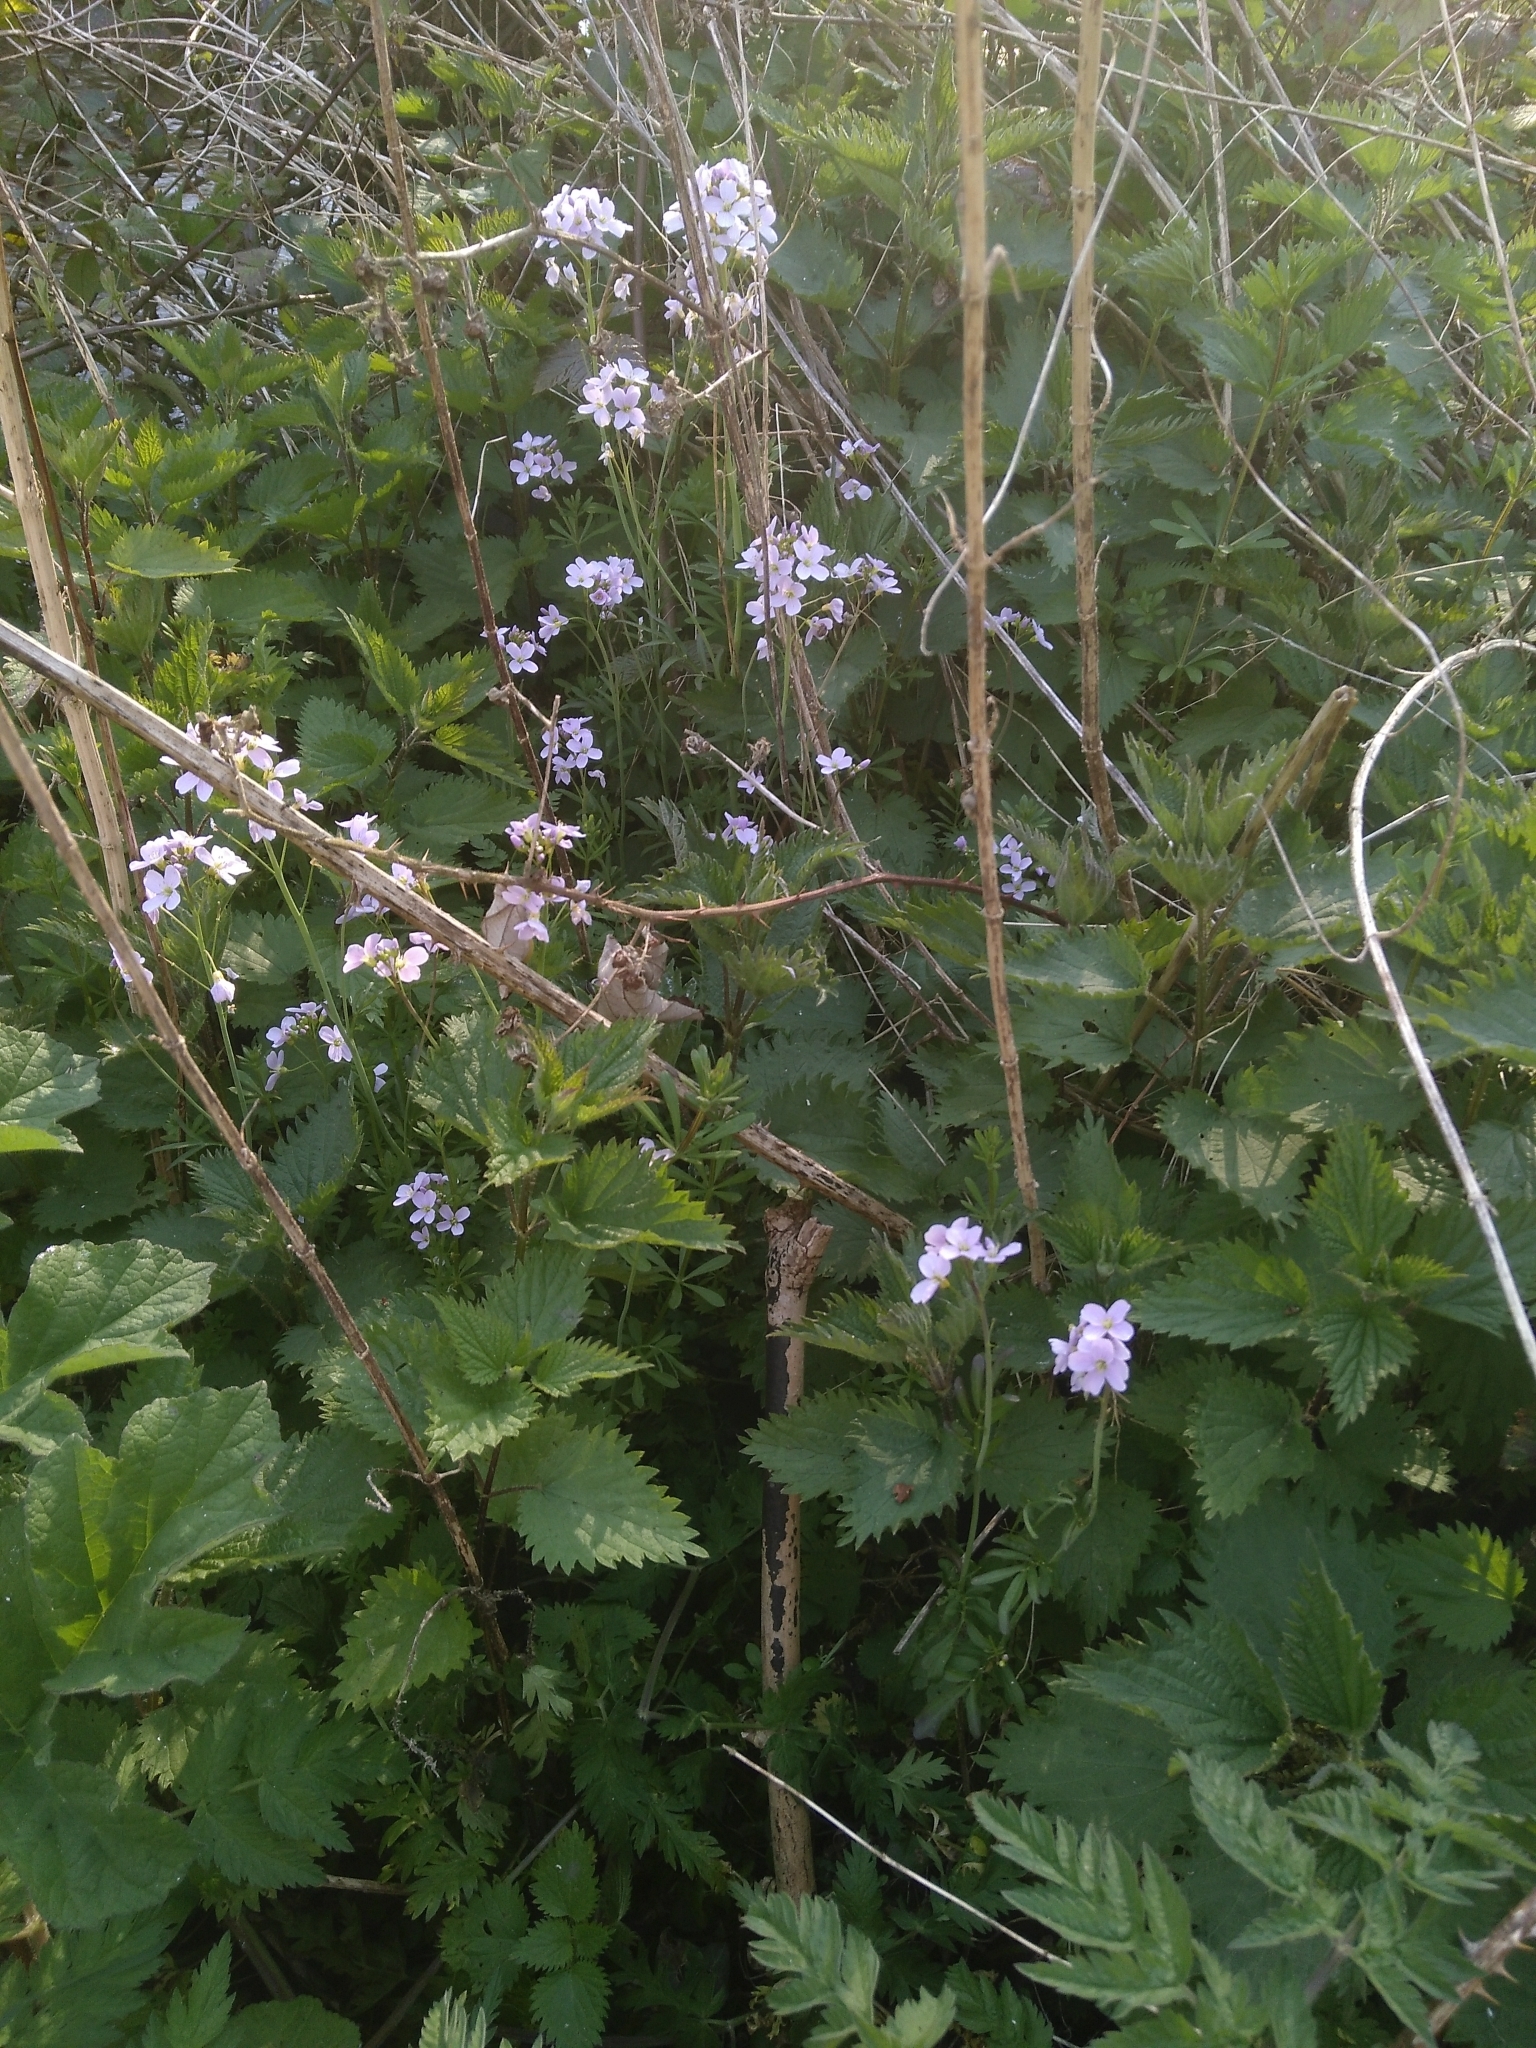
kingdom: Plantae
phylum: Tracheophyta
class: Magnoliopsida
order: Brassicales
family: Brassicaceae
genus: Cardamine
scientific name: Cardamine pratensis
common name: Cuckoo flower
